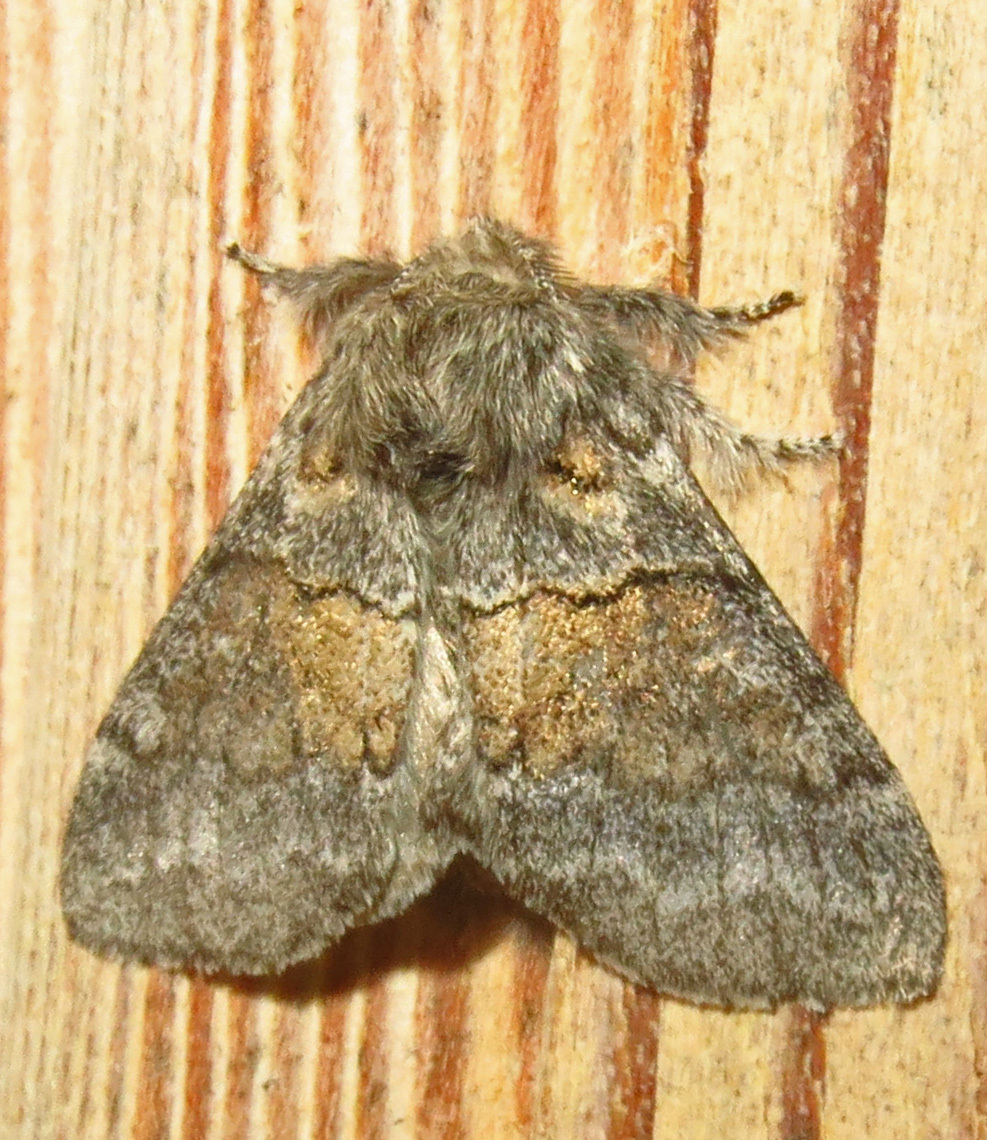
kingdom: Animalia
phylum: Arthropoda
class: Insecta
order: Lepidoptera
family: Notodontidae
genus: Gluphisia
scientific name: Gluphisia septentrionis
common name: Common gluphisia
